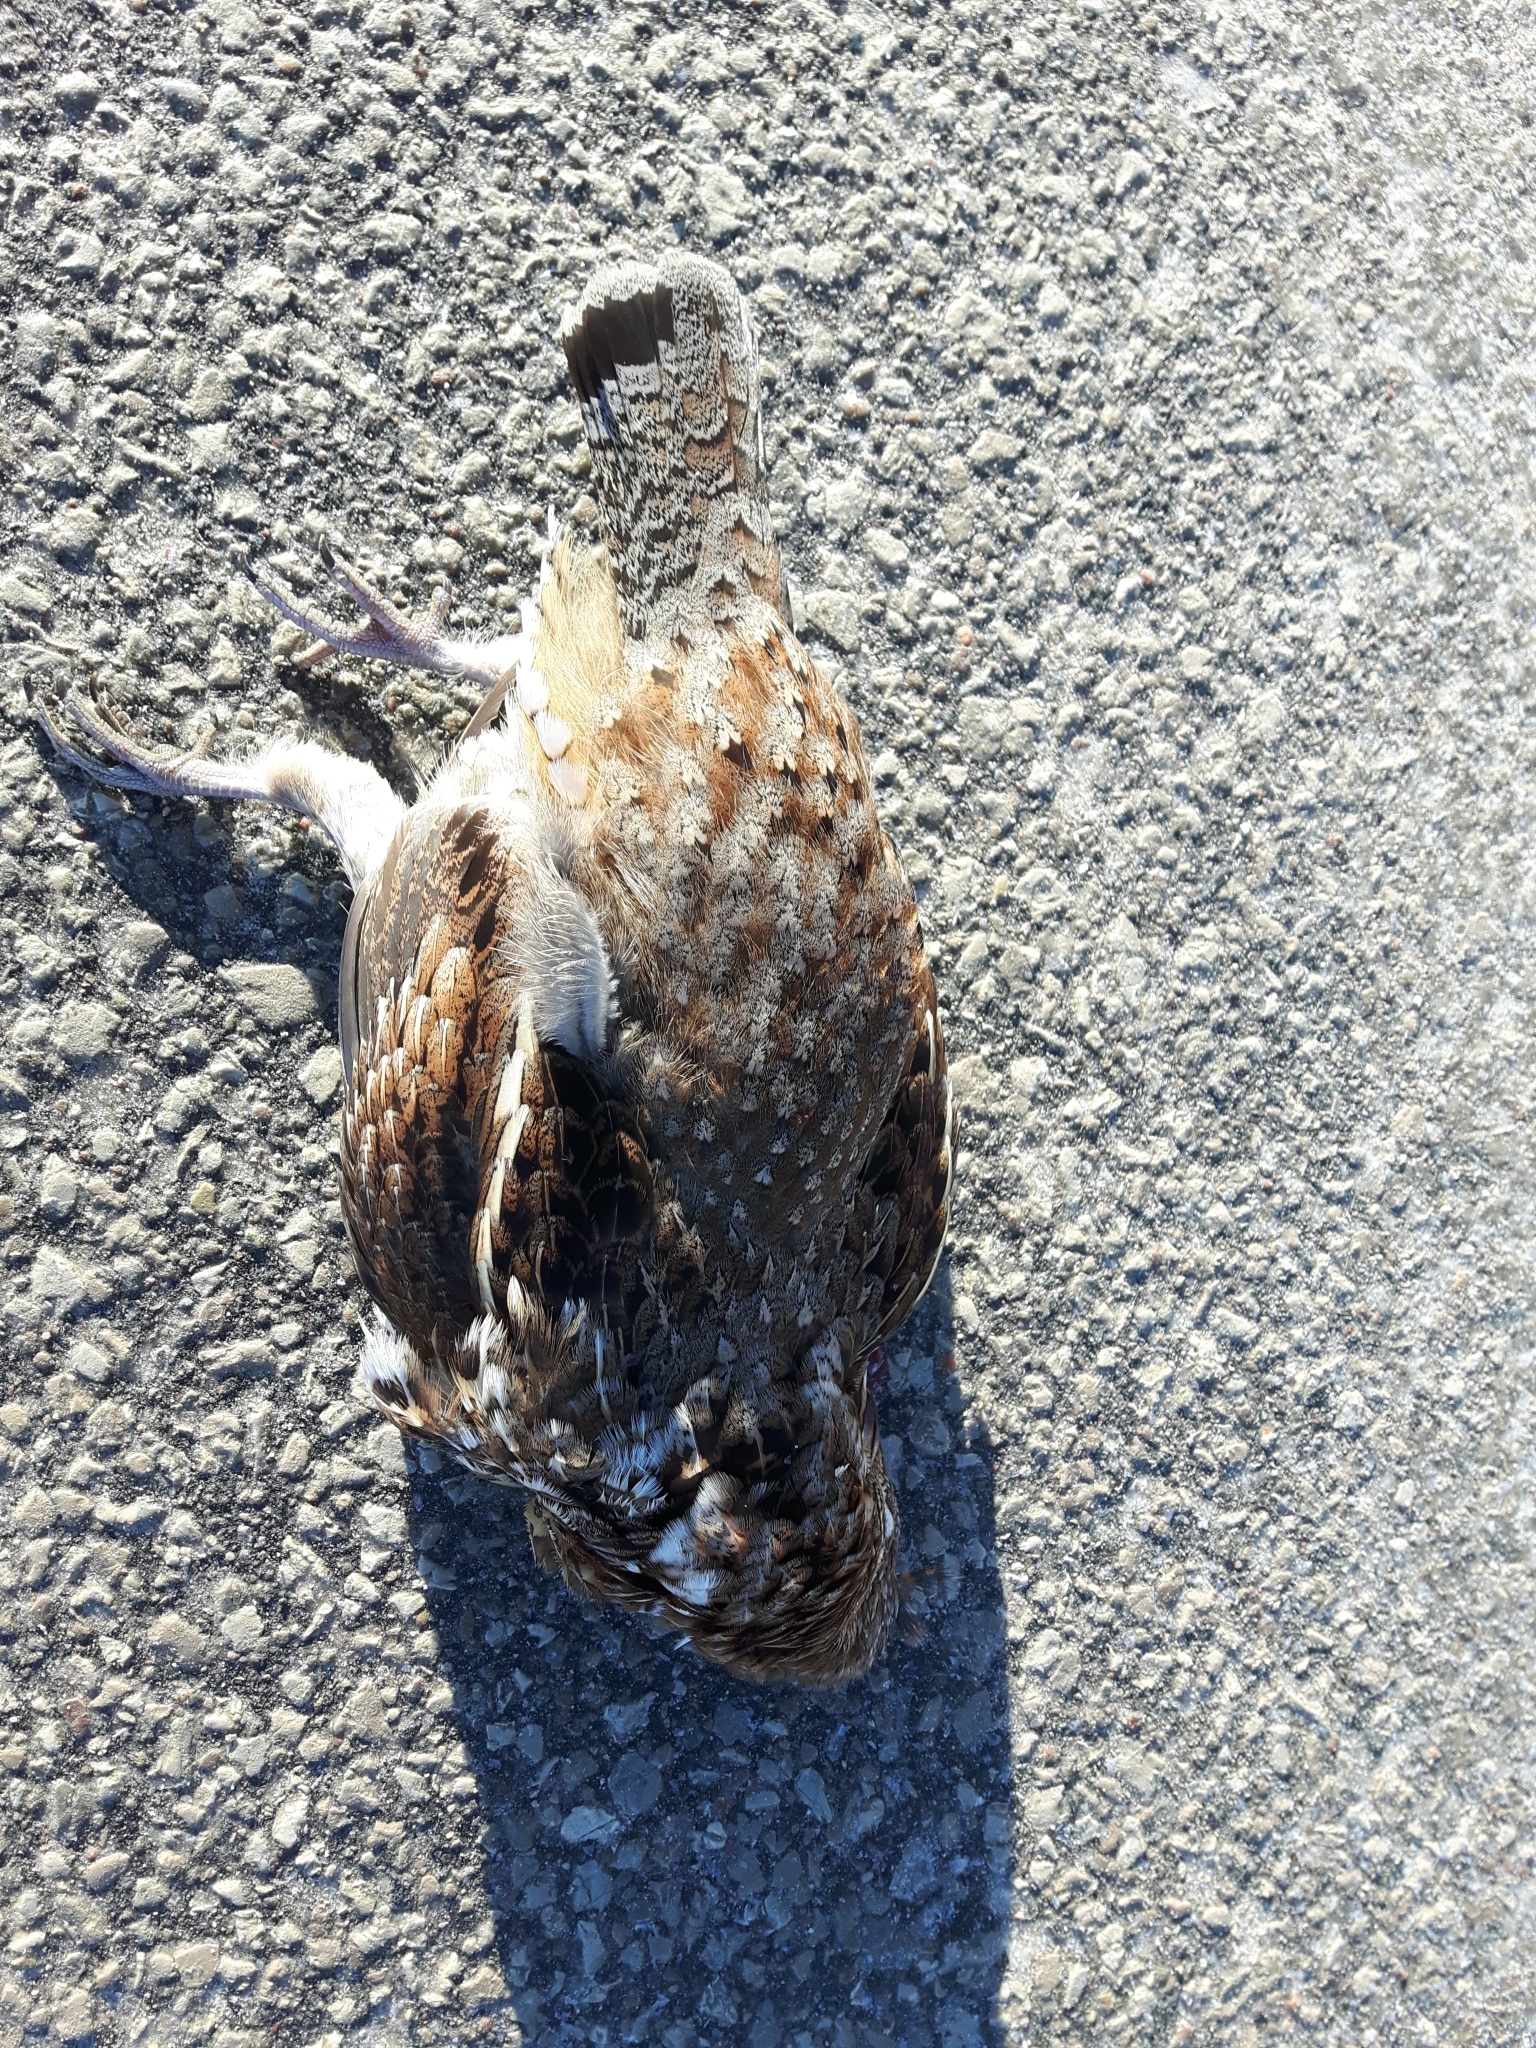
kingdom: Animalia
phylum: Chordata
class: Aves
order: Galliformes
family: Phasianidae
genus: Bonasa
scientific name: Bonasa umbellus
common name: Ruffed grouse
